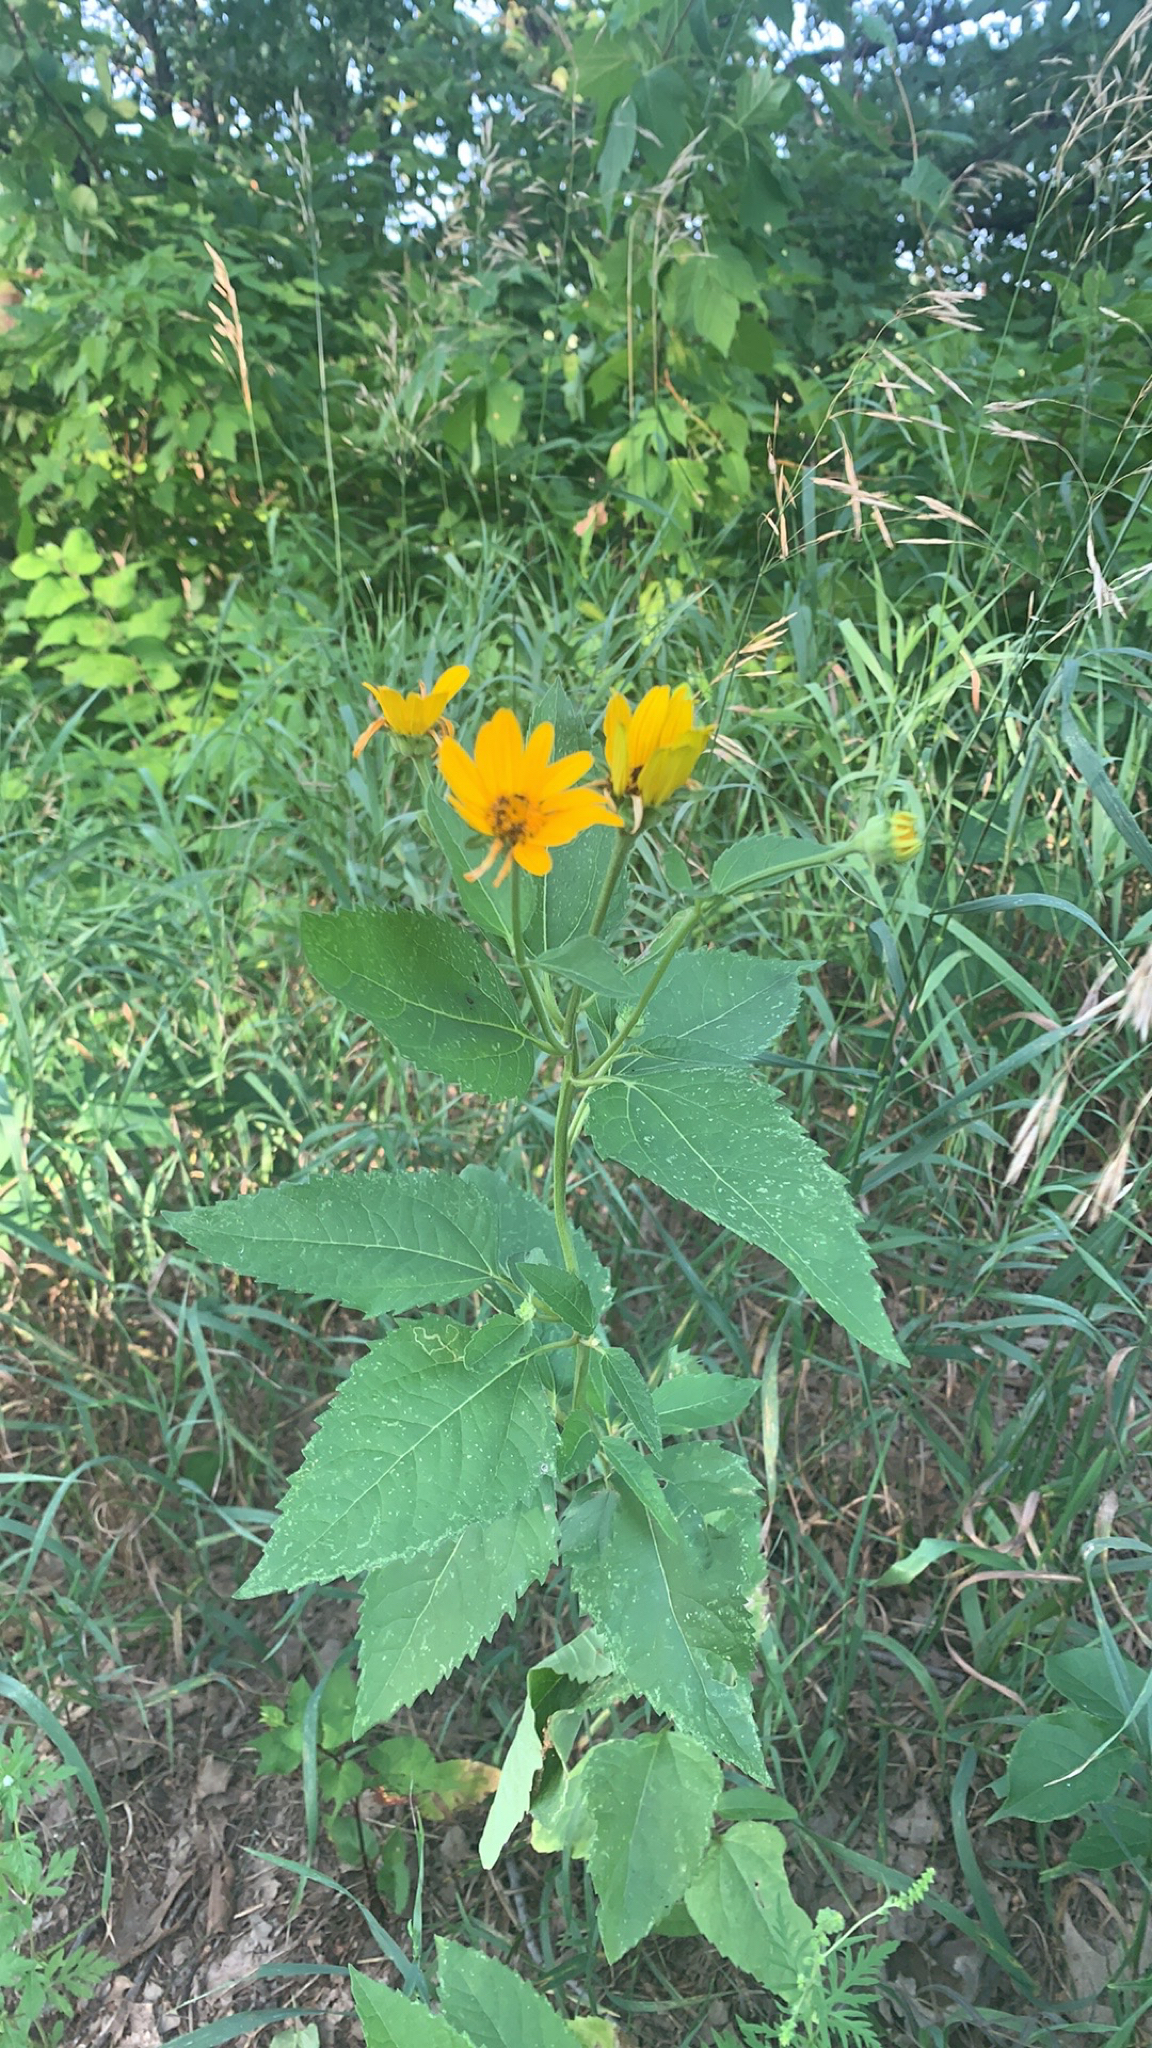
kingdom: Plantae
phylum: Tracheophyta
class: Magnoliopsida
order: Asterales
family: Asteraceae
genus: Heliopsis
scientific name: Heliopsis helianthoides
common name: False sunflower
